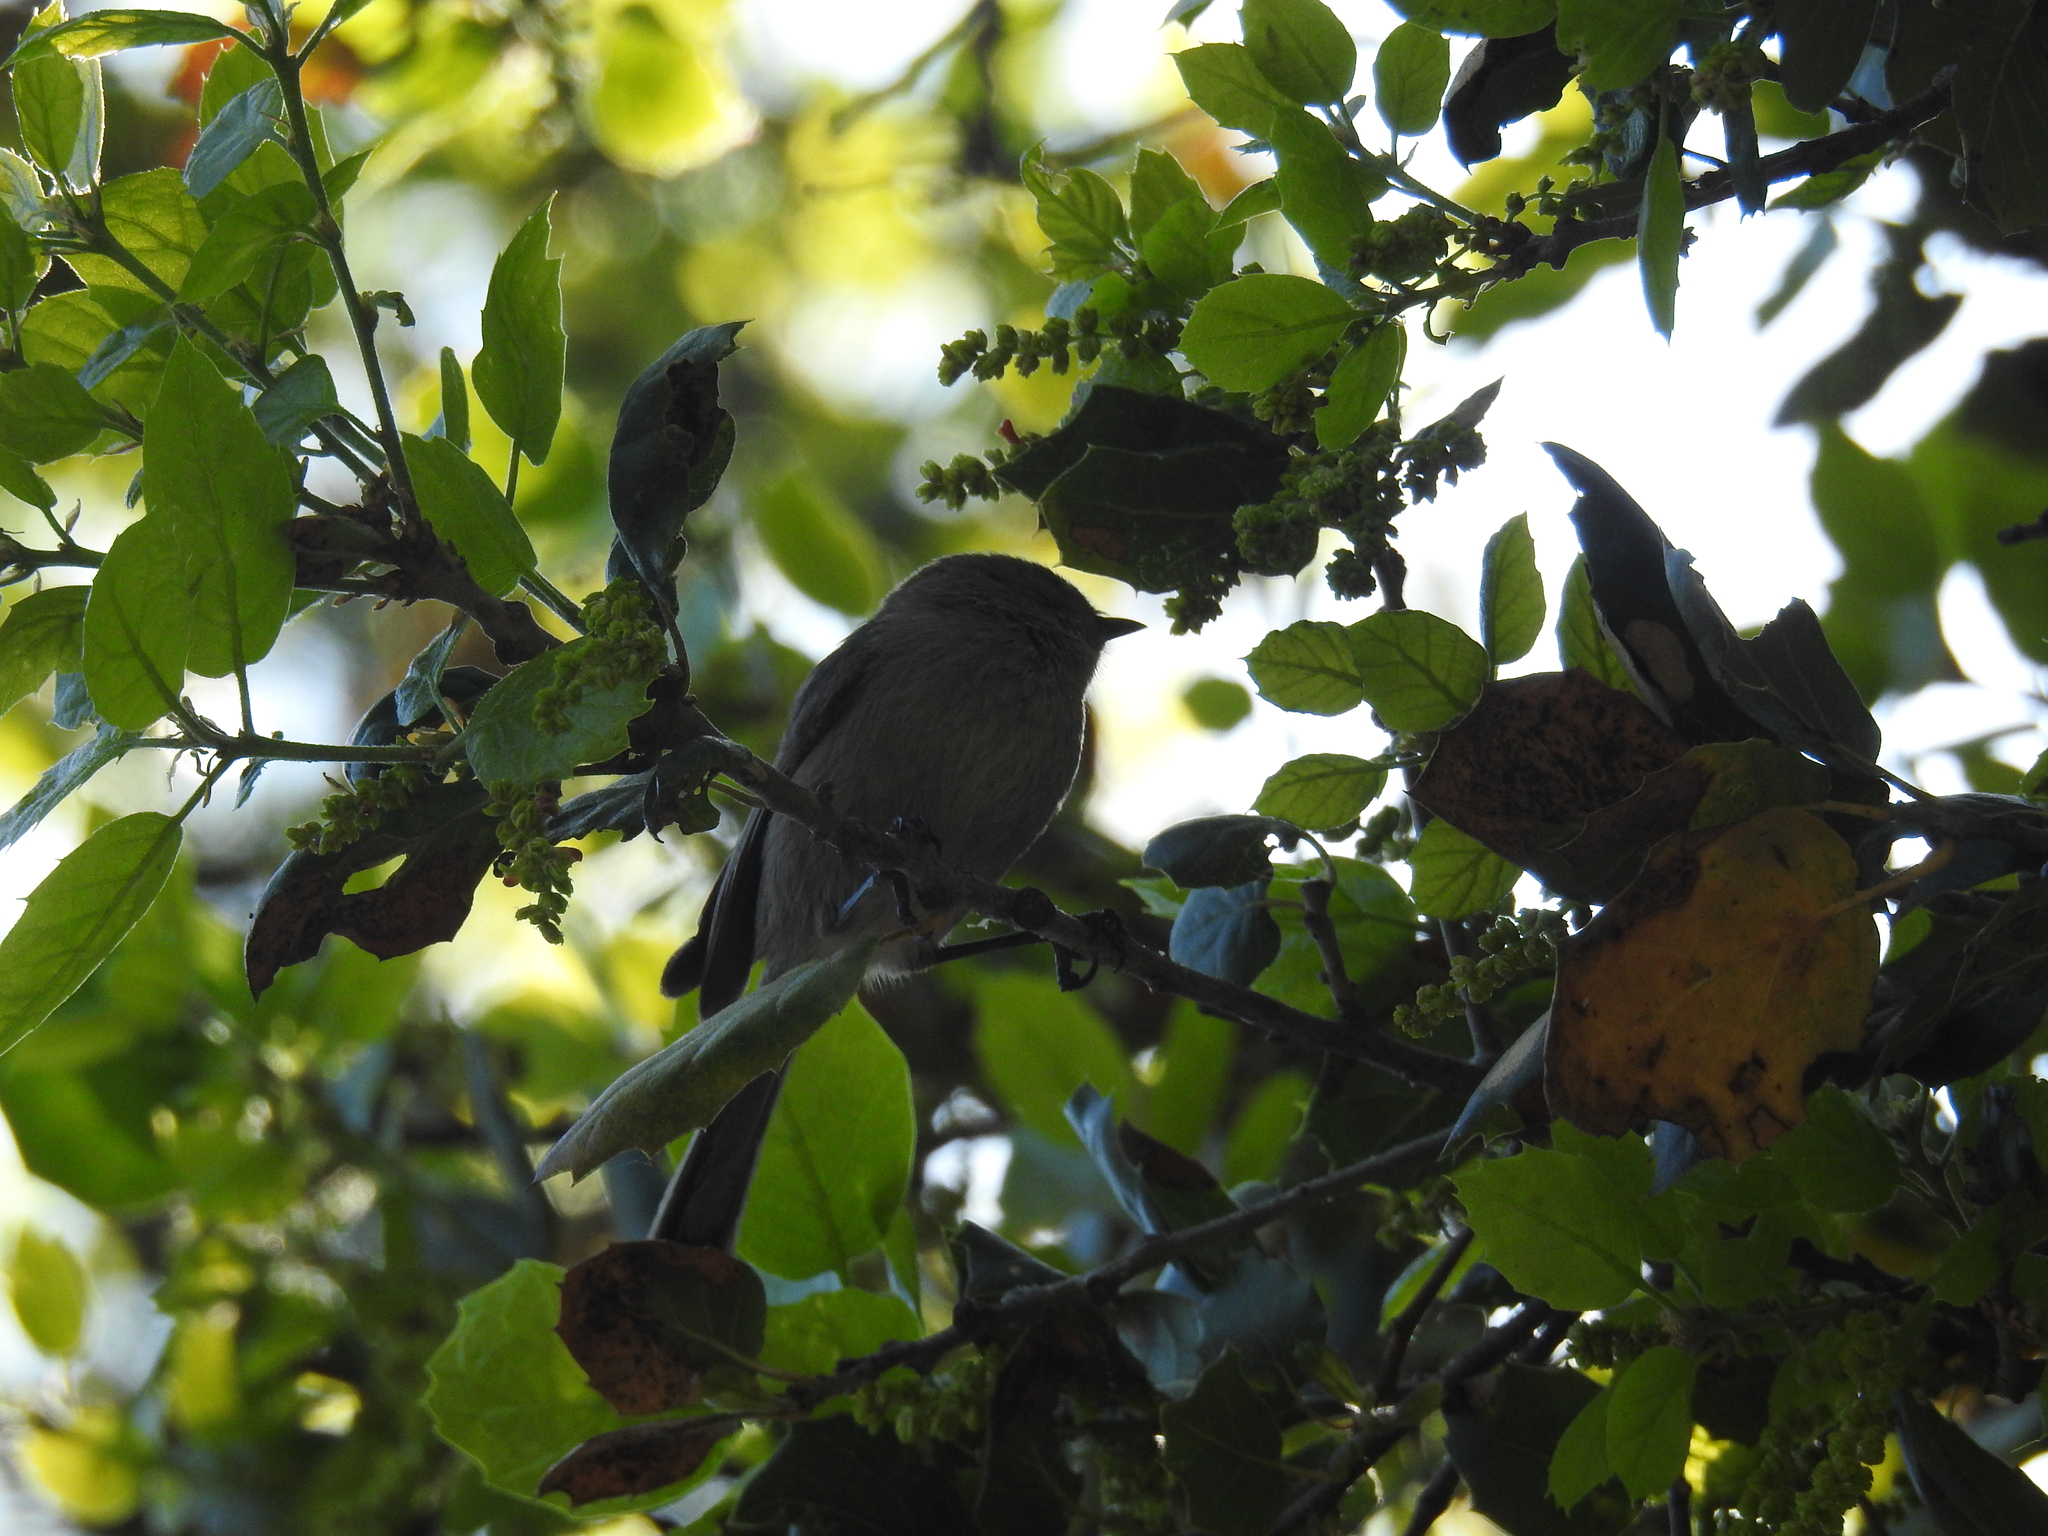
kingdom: Animalia
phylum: Chordata
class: Aves
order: Passeriformes
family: Aegithalidae
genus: Psaltriparus
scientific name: Psaltriparus minimus
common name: American bushtit
